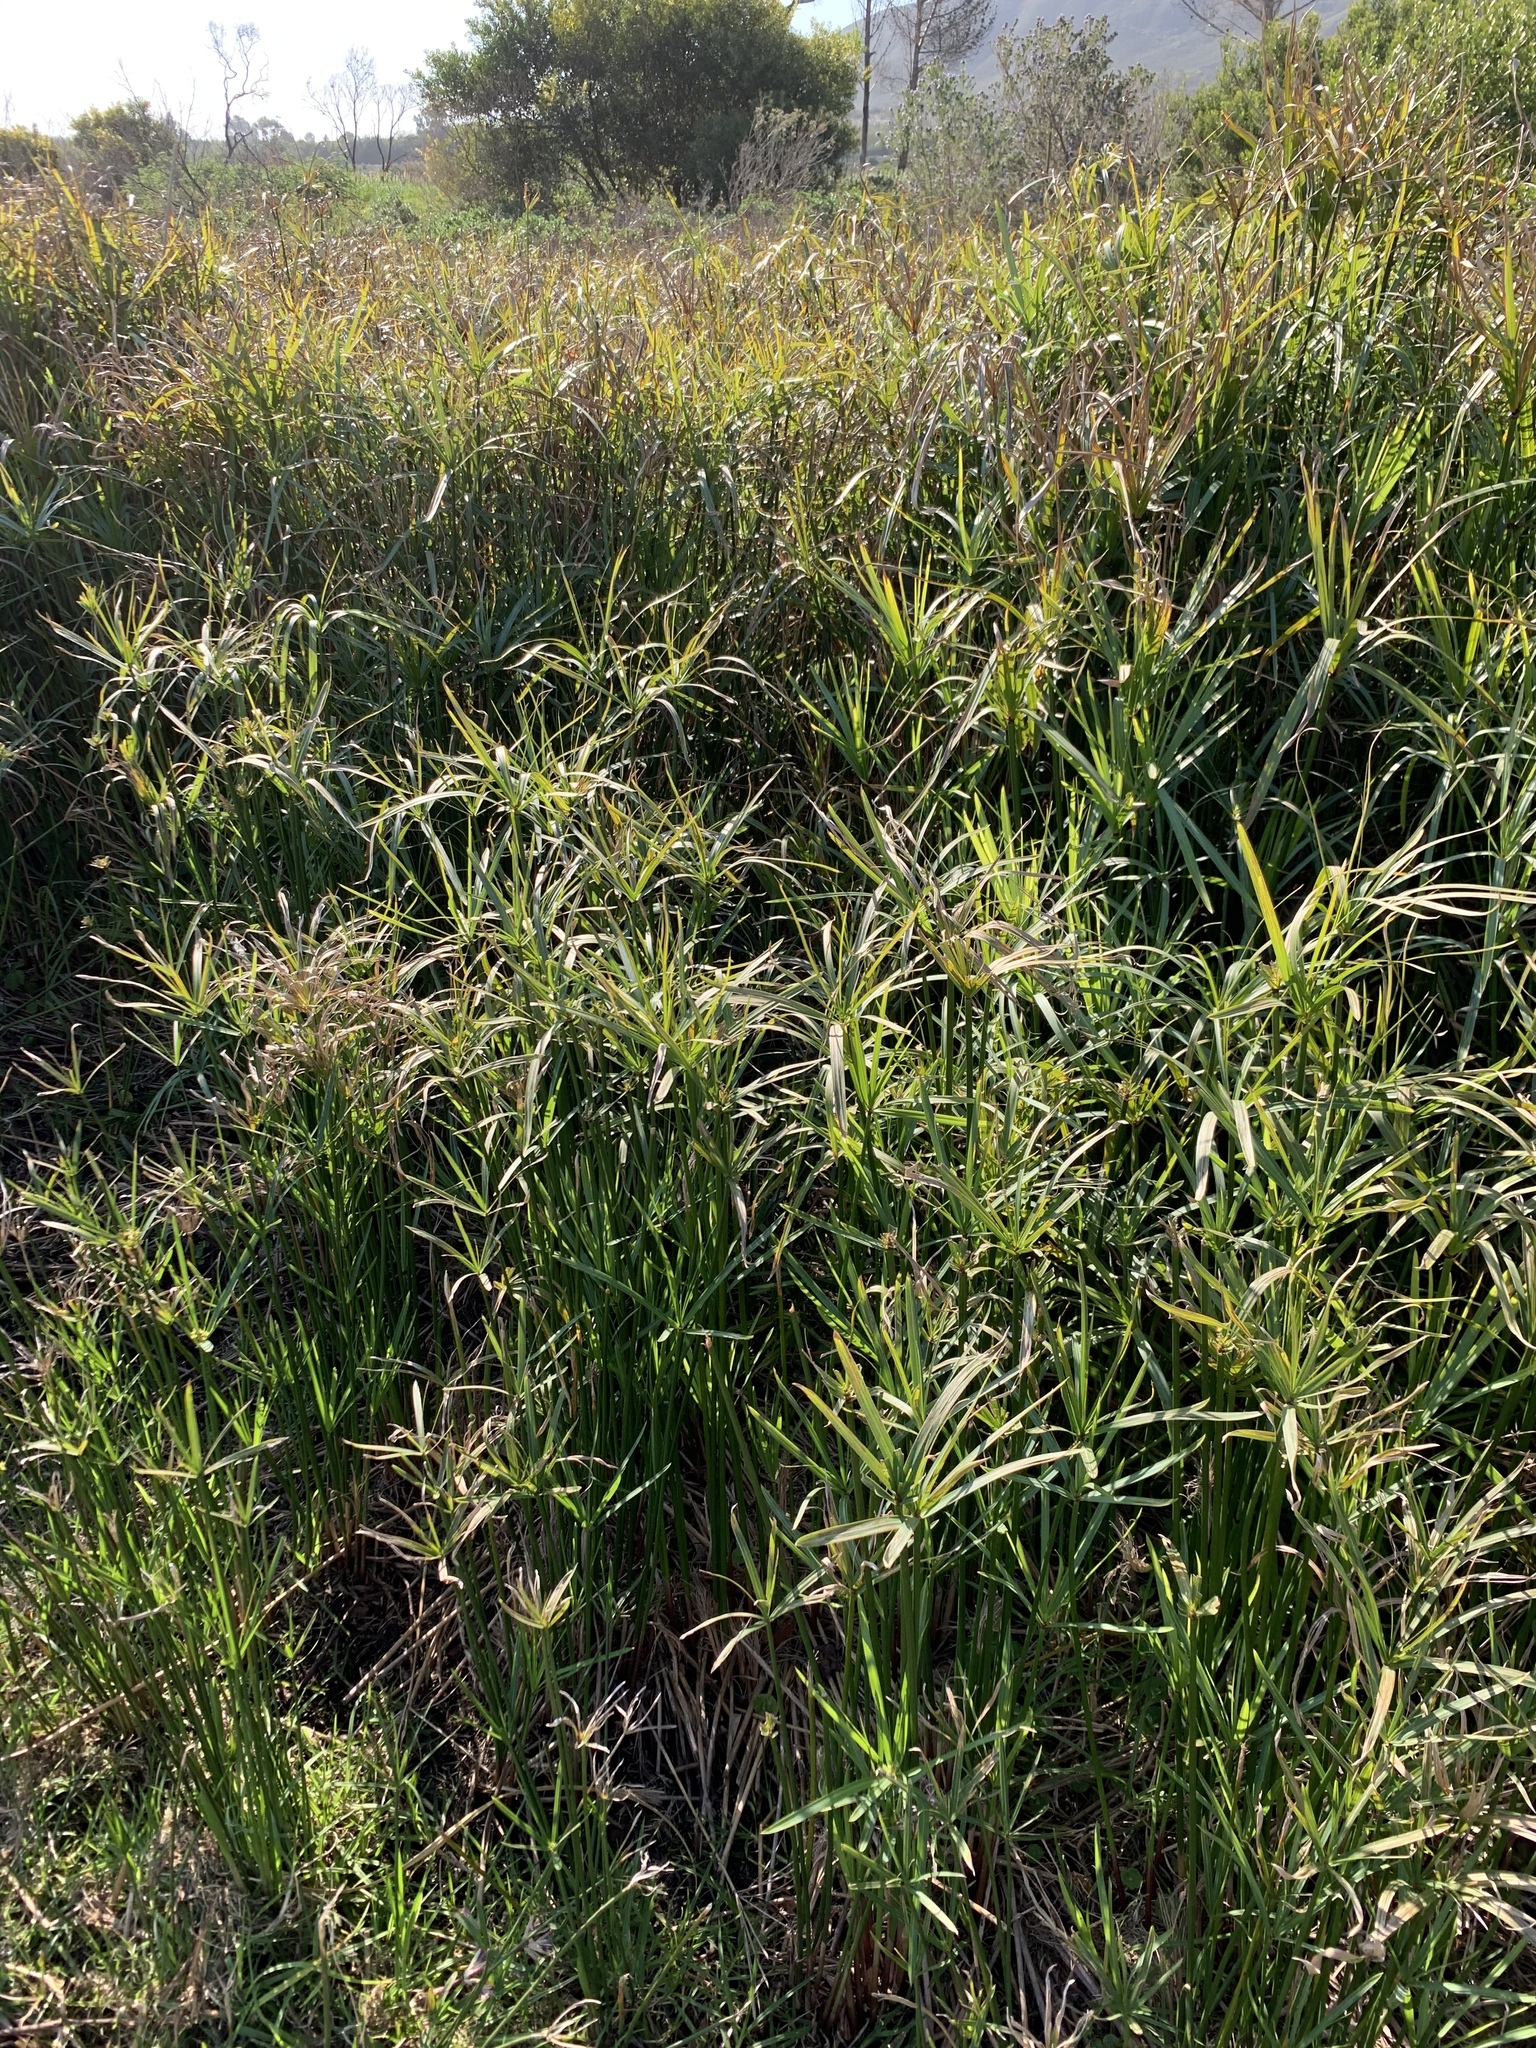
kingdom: Plantae
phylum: Tracheophyta
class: Liliopsida
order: Poales
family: Cyperaceae
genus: Cyperus
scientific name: Cyperus textilis
